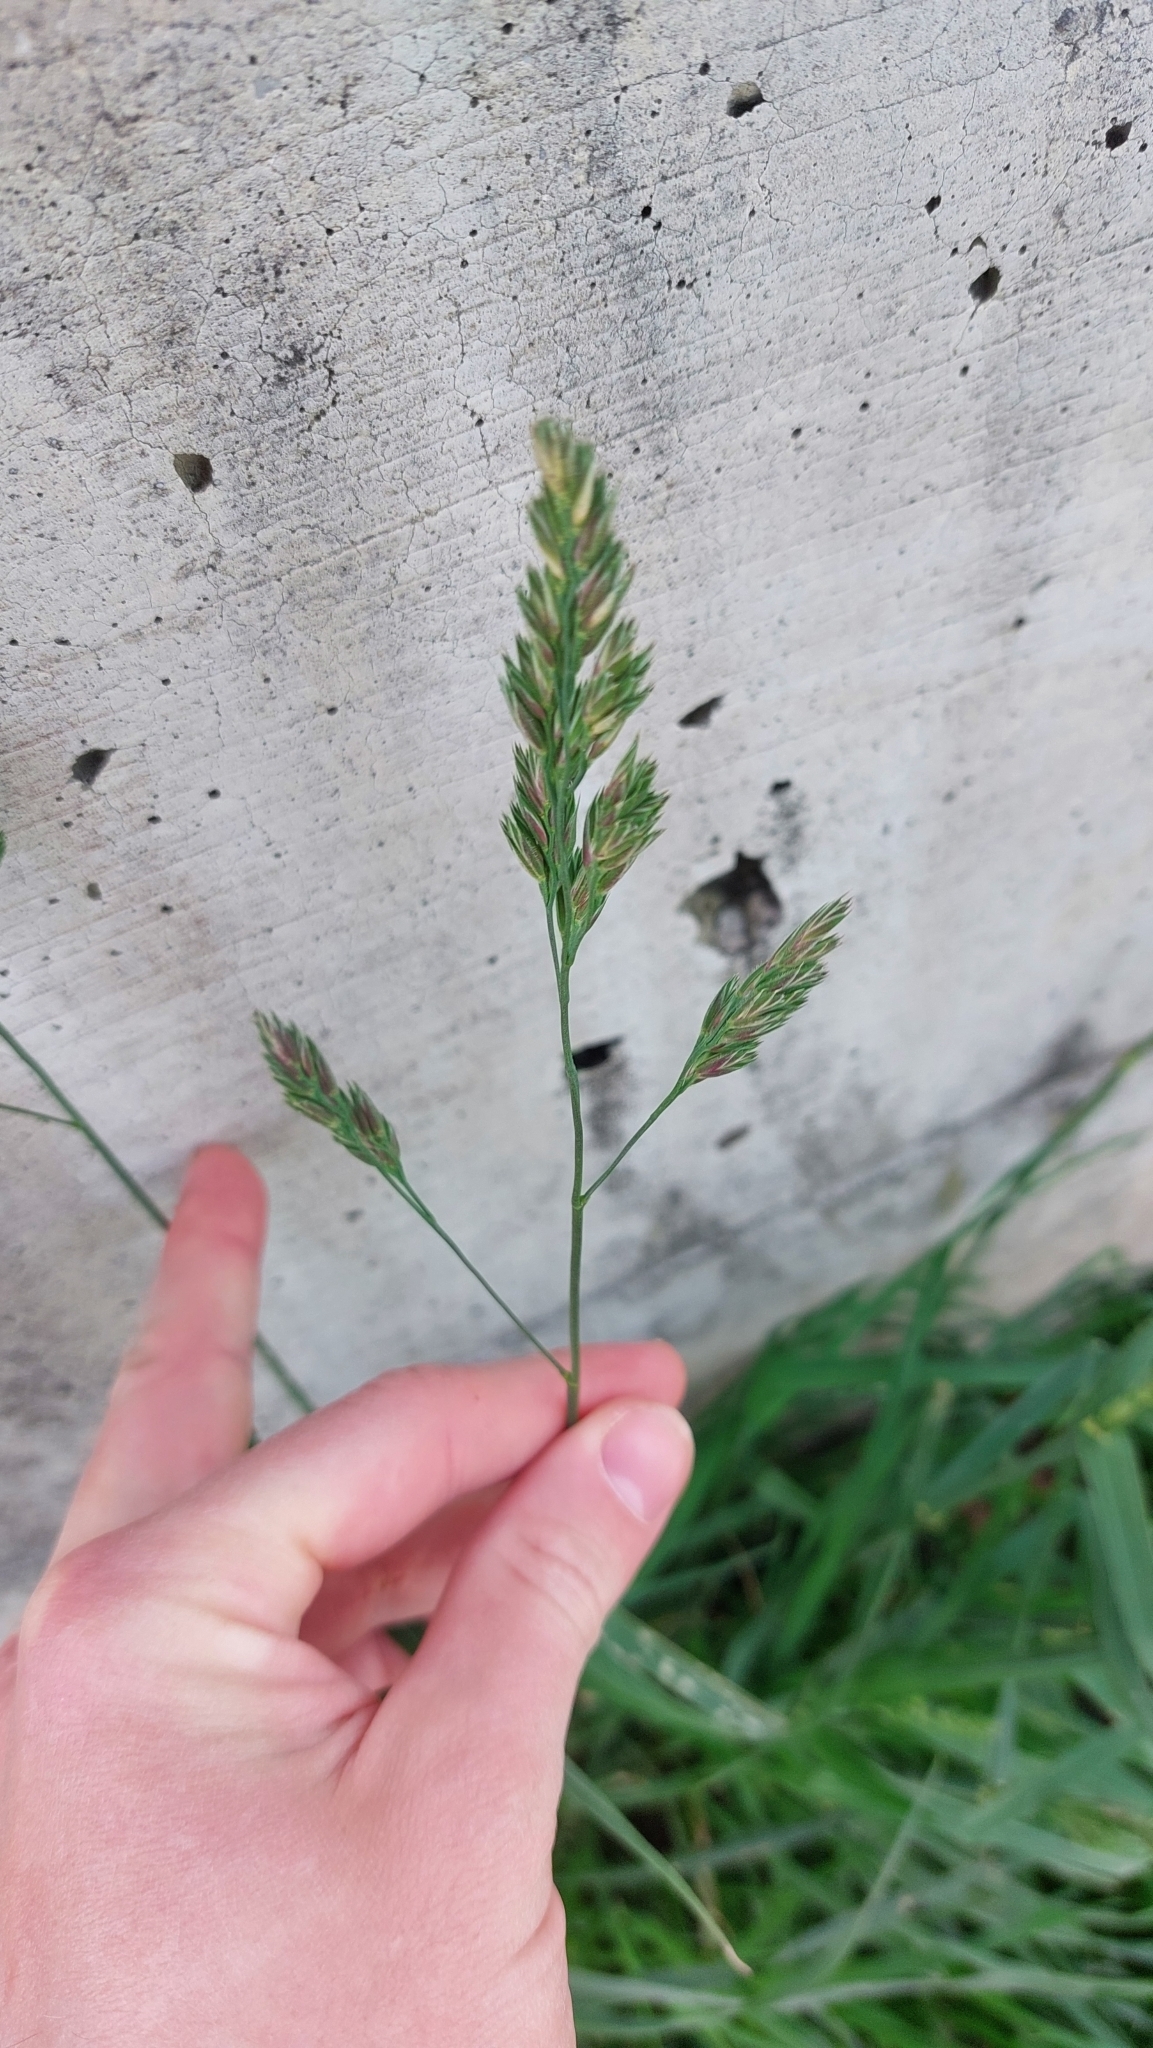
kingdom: Plantae
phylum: Tracheophyta
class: Liliopsida
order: Poales
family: Poaceae
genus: Dactylis
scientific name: Dactylis glomerata
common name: Orchardgrass
